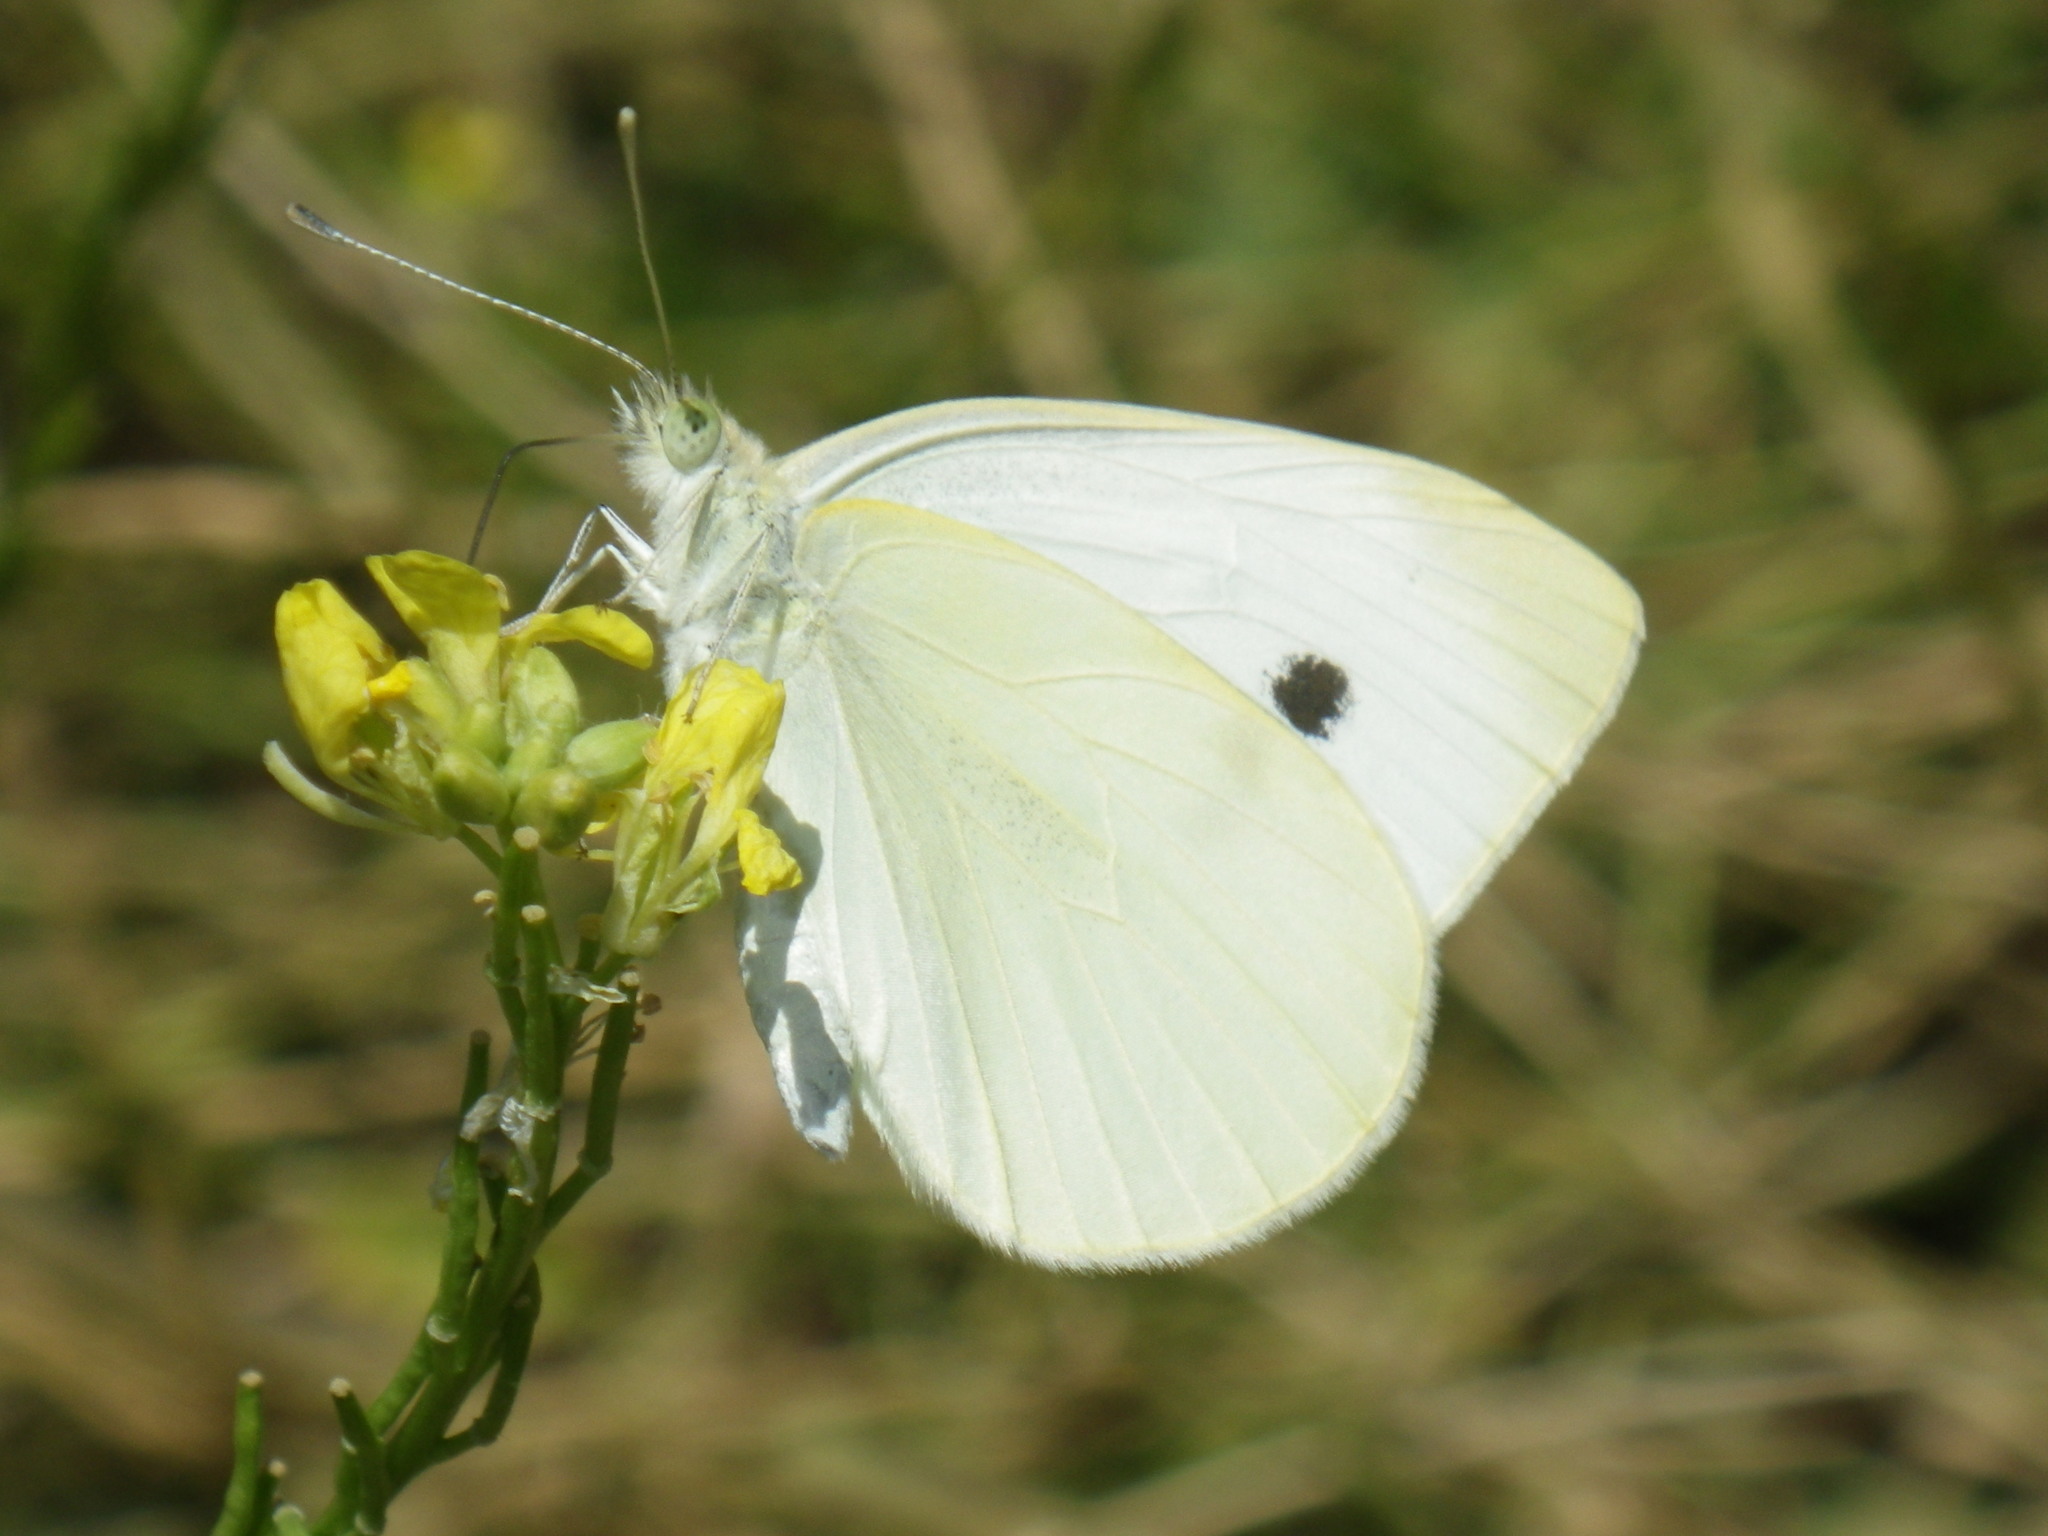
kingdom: Animalia
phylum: Arthropoda
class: Insecta
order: Lepidoptera
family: Pieridae
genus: Pieris
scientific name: Pieris rapae
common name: Small white
